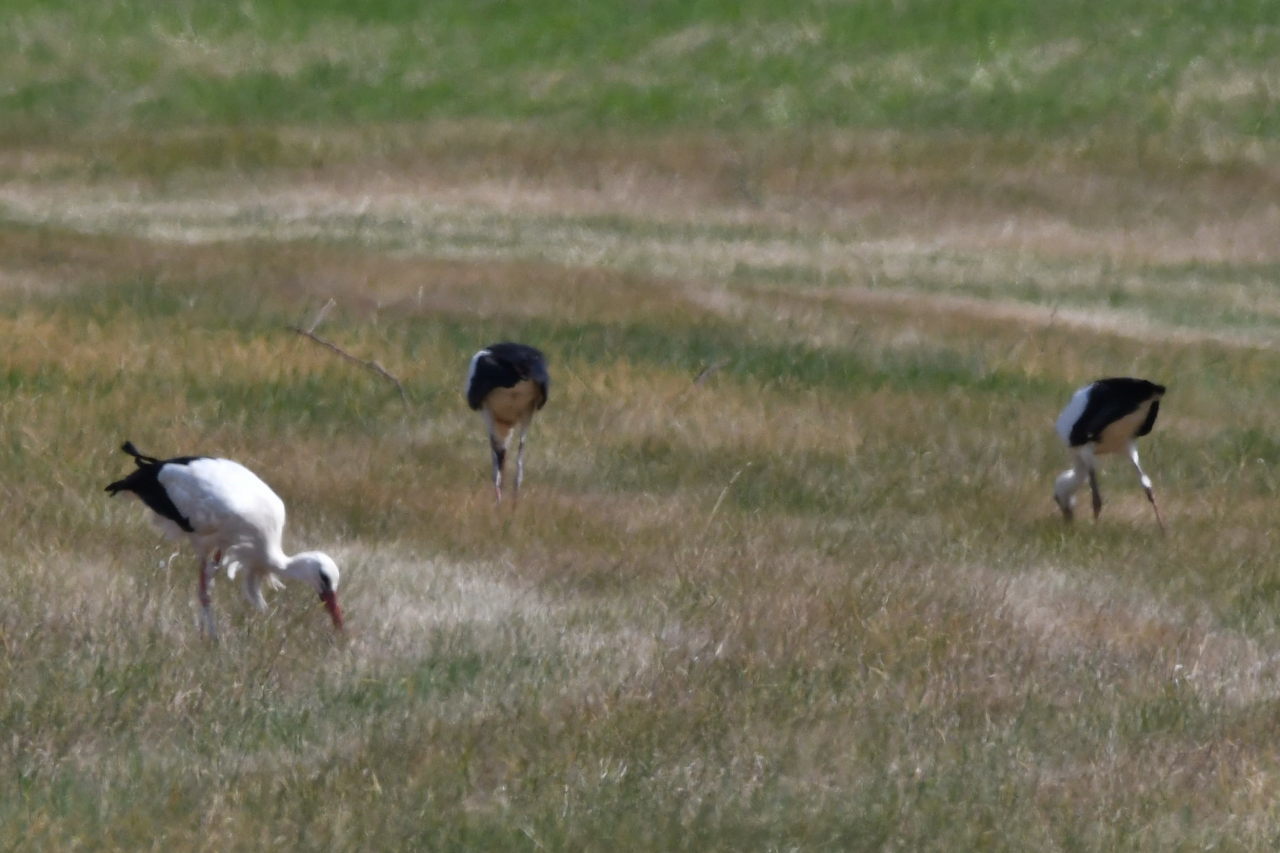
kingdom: Animalia
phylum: Chordata
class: Aves
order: Ciconiiformes
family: Ciconiidae
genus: Ciconia
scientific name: Ciconia ciconia
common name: White stork
